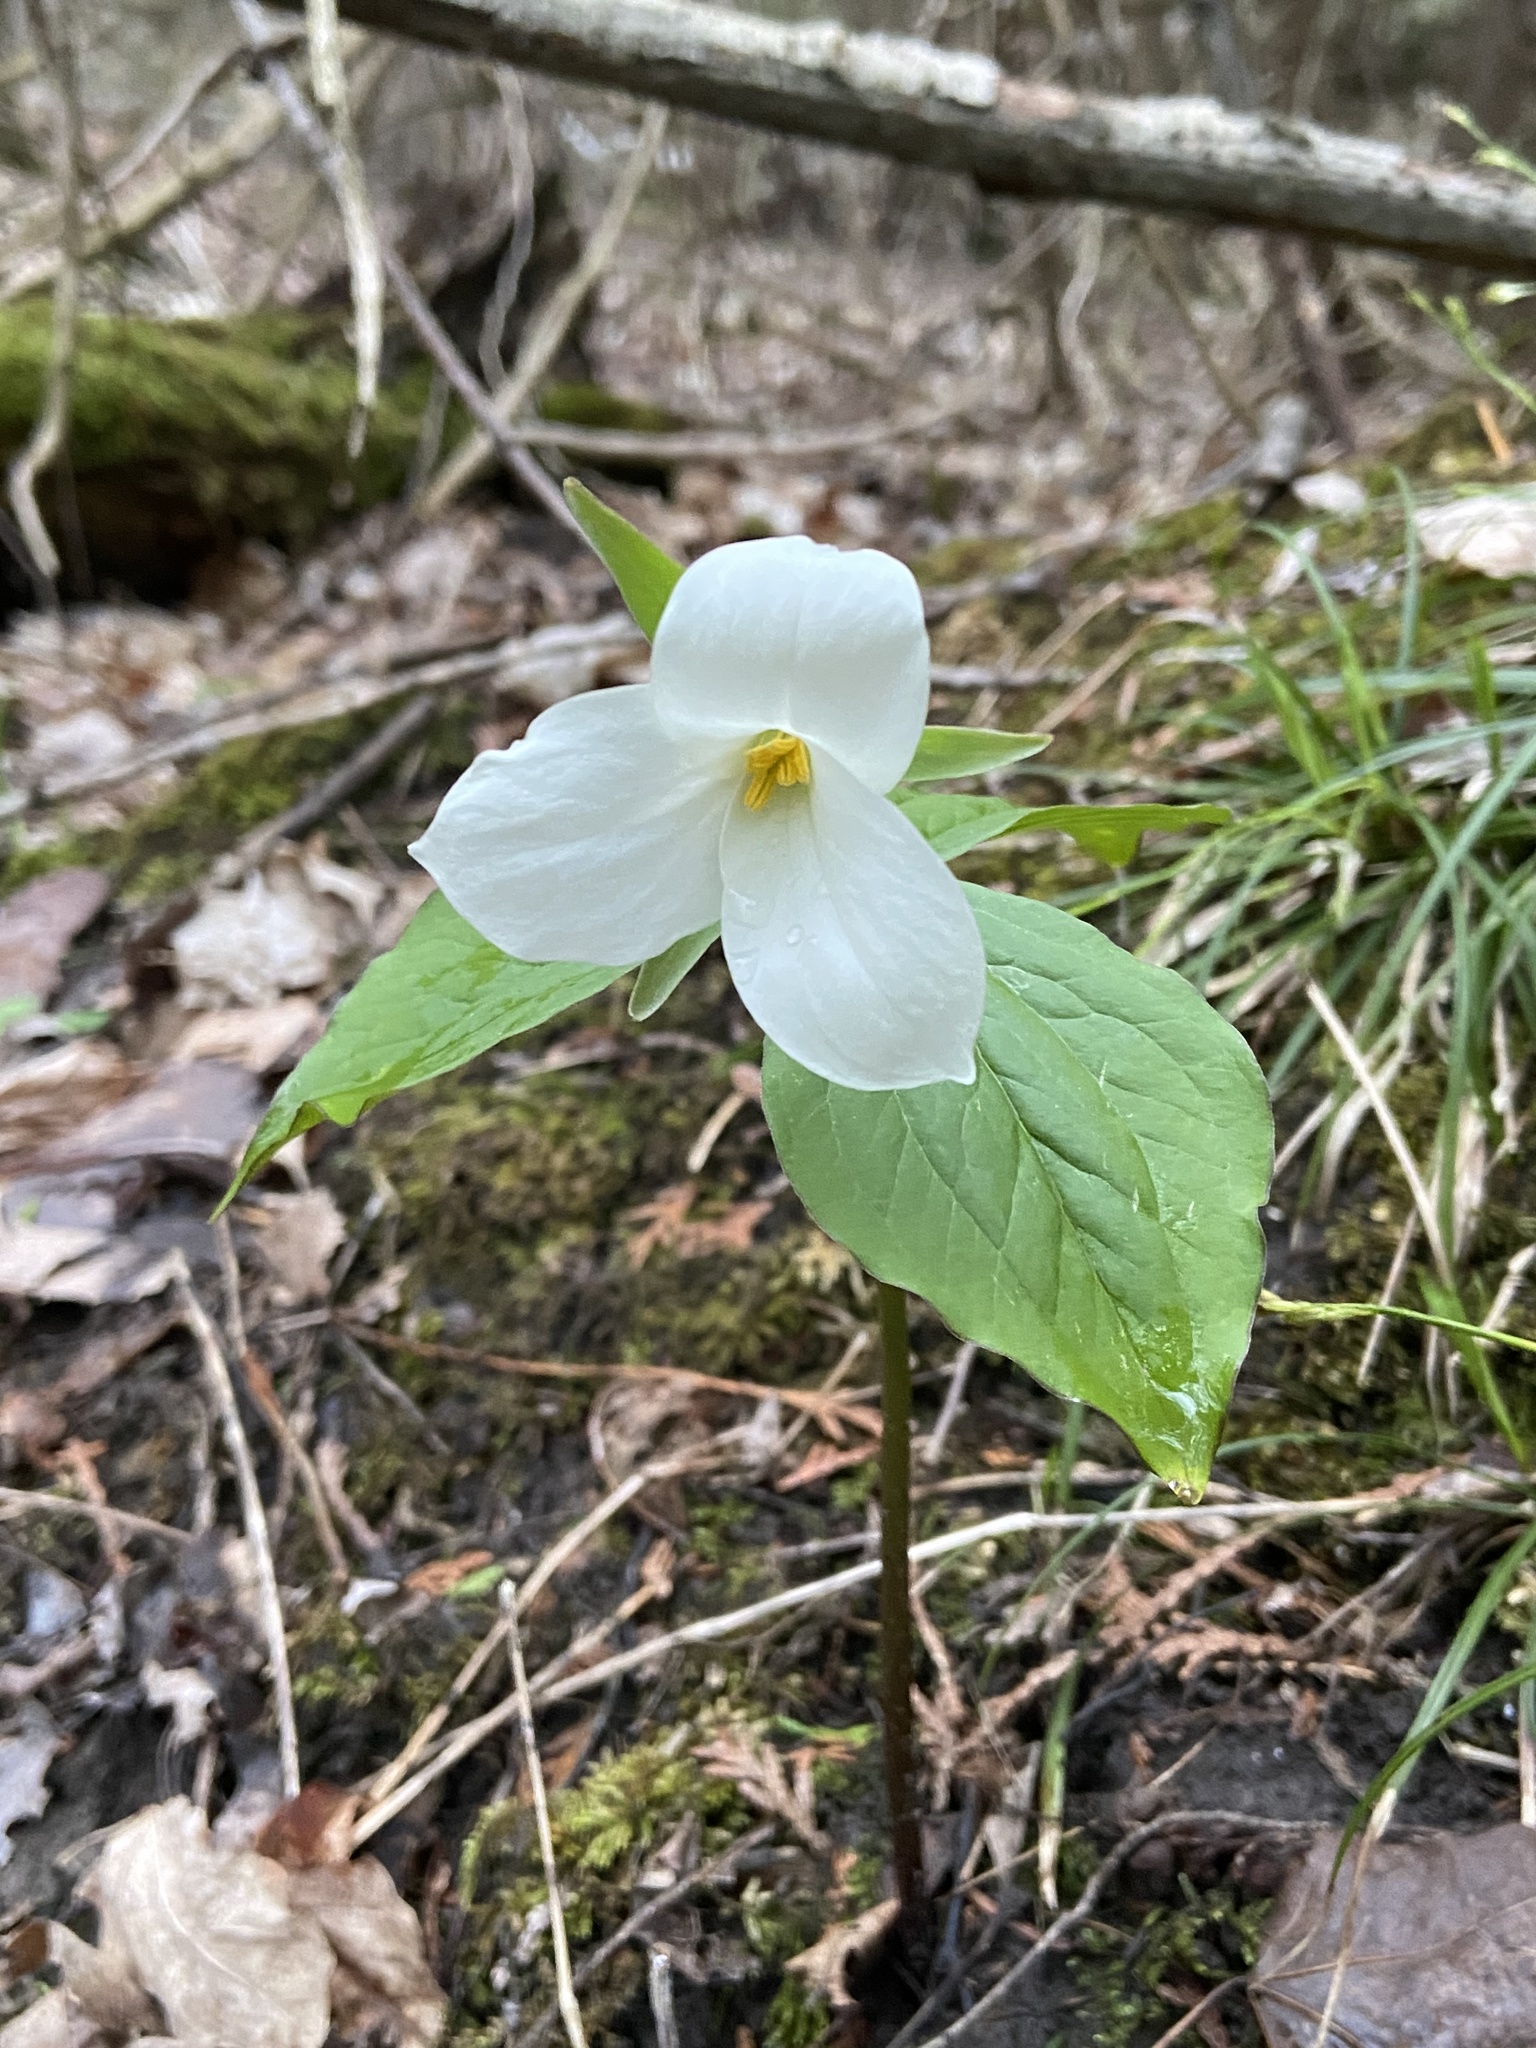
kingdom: Plantae
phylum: Tracheophyta
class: Liliopsida
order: Liliales
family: Melanthiaceae
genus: Trillium
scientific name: Trillium grandiflorum
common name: Great white trillium
